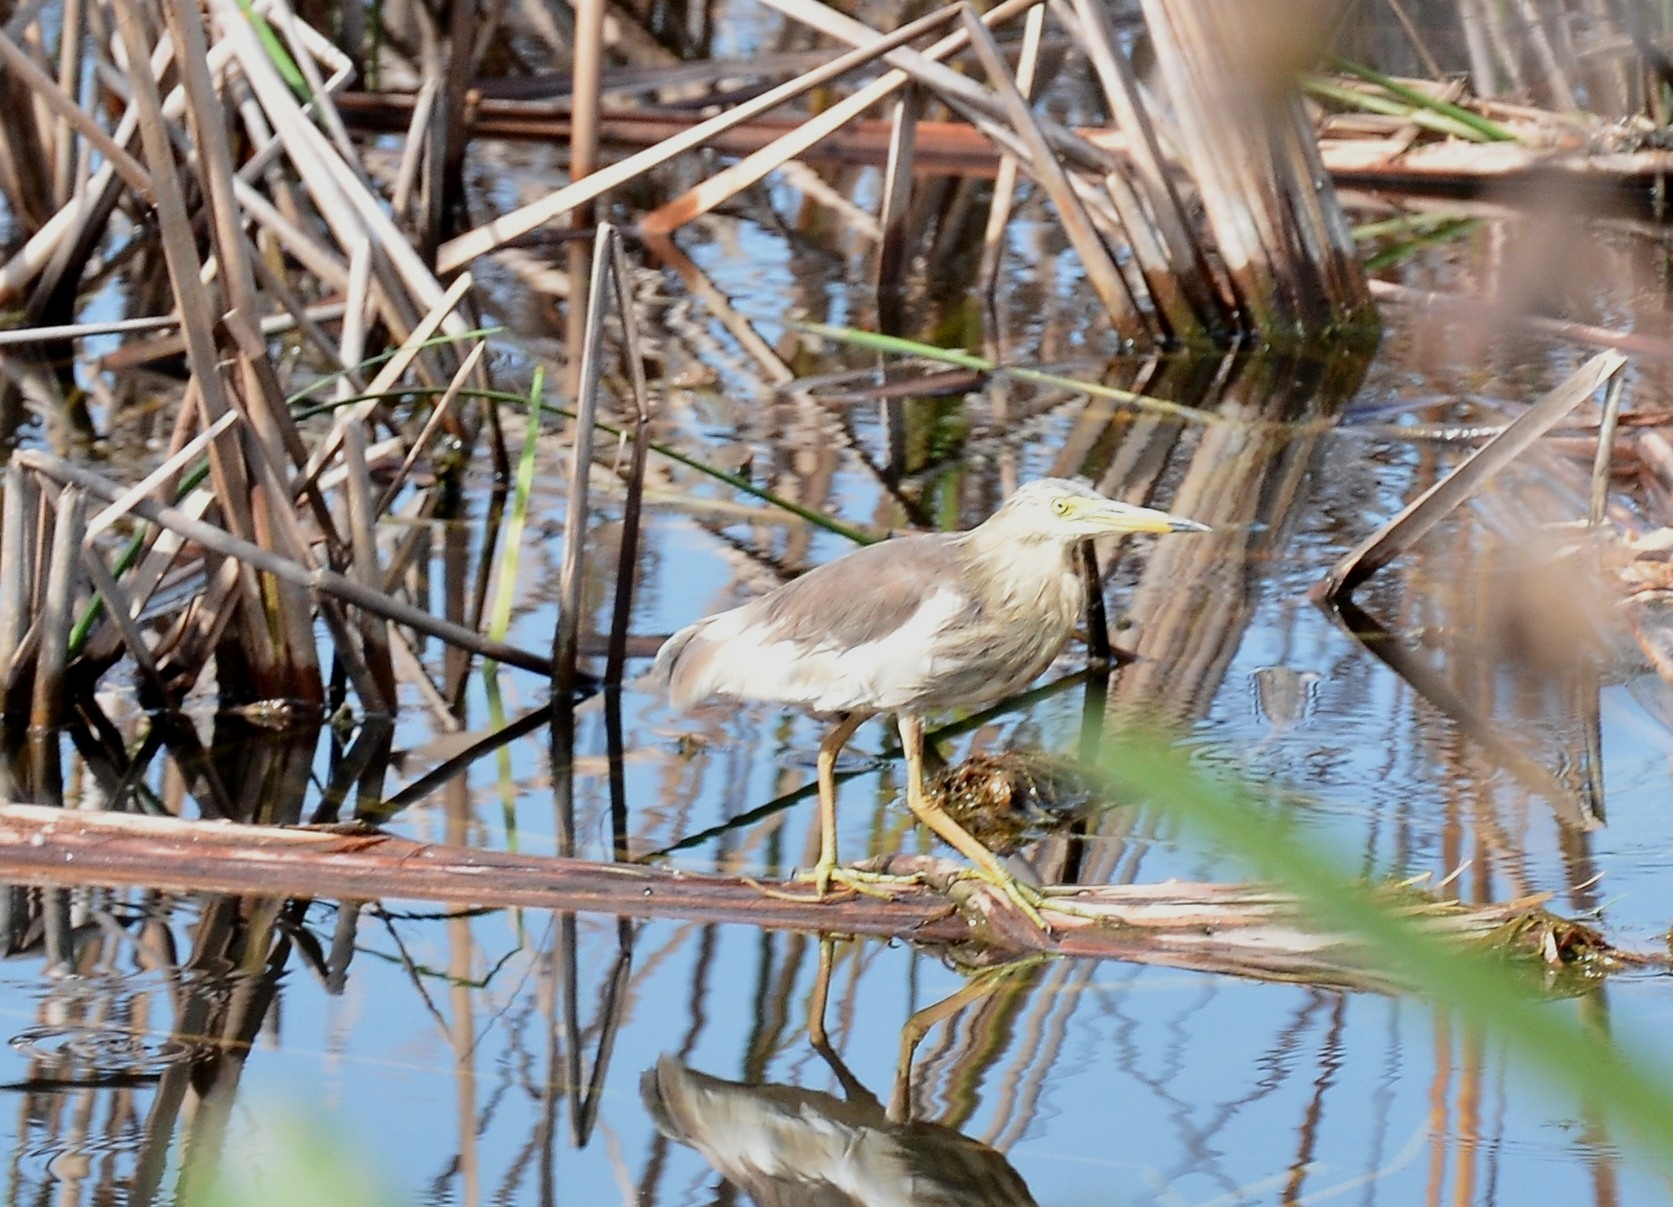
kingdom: Animalia
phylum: Chordata
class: Aves
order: Pelecaniformes
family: Ardeidae
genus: Ardeola
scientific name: Ardeola grayii
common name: Indian pond heron
